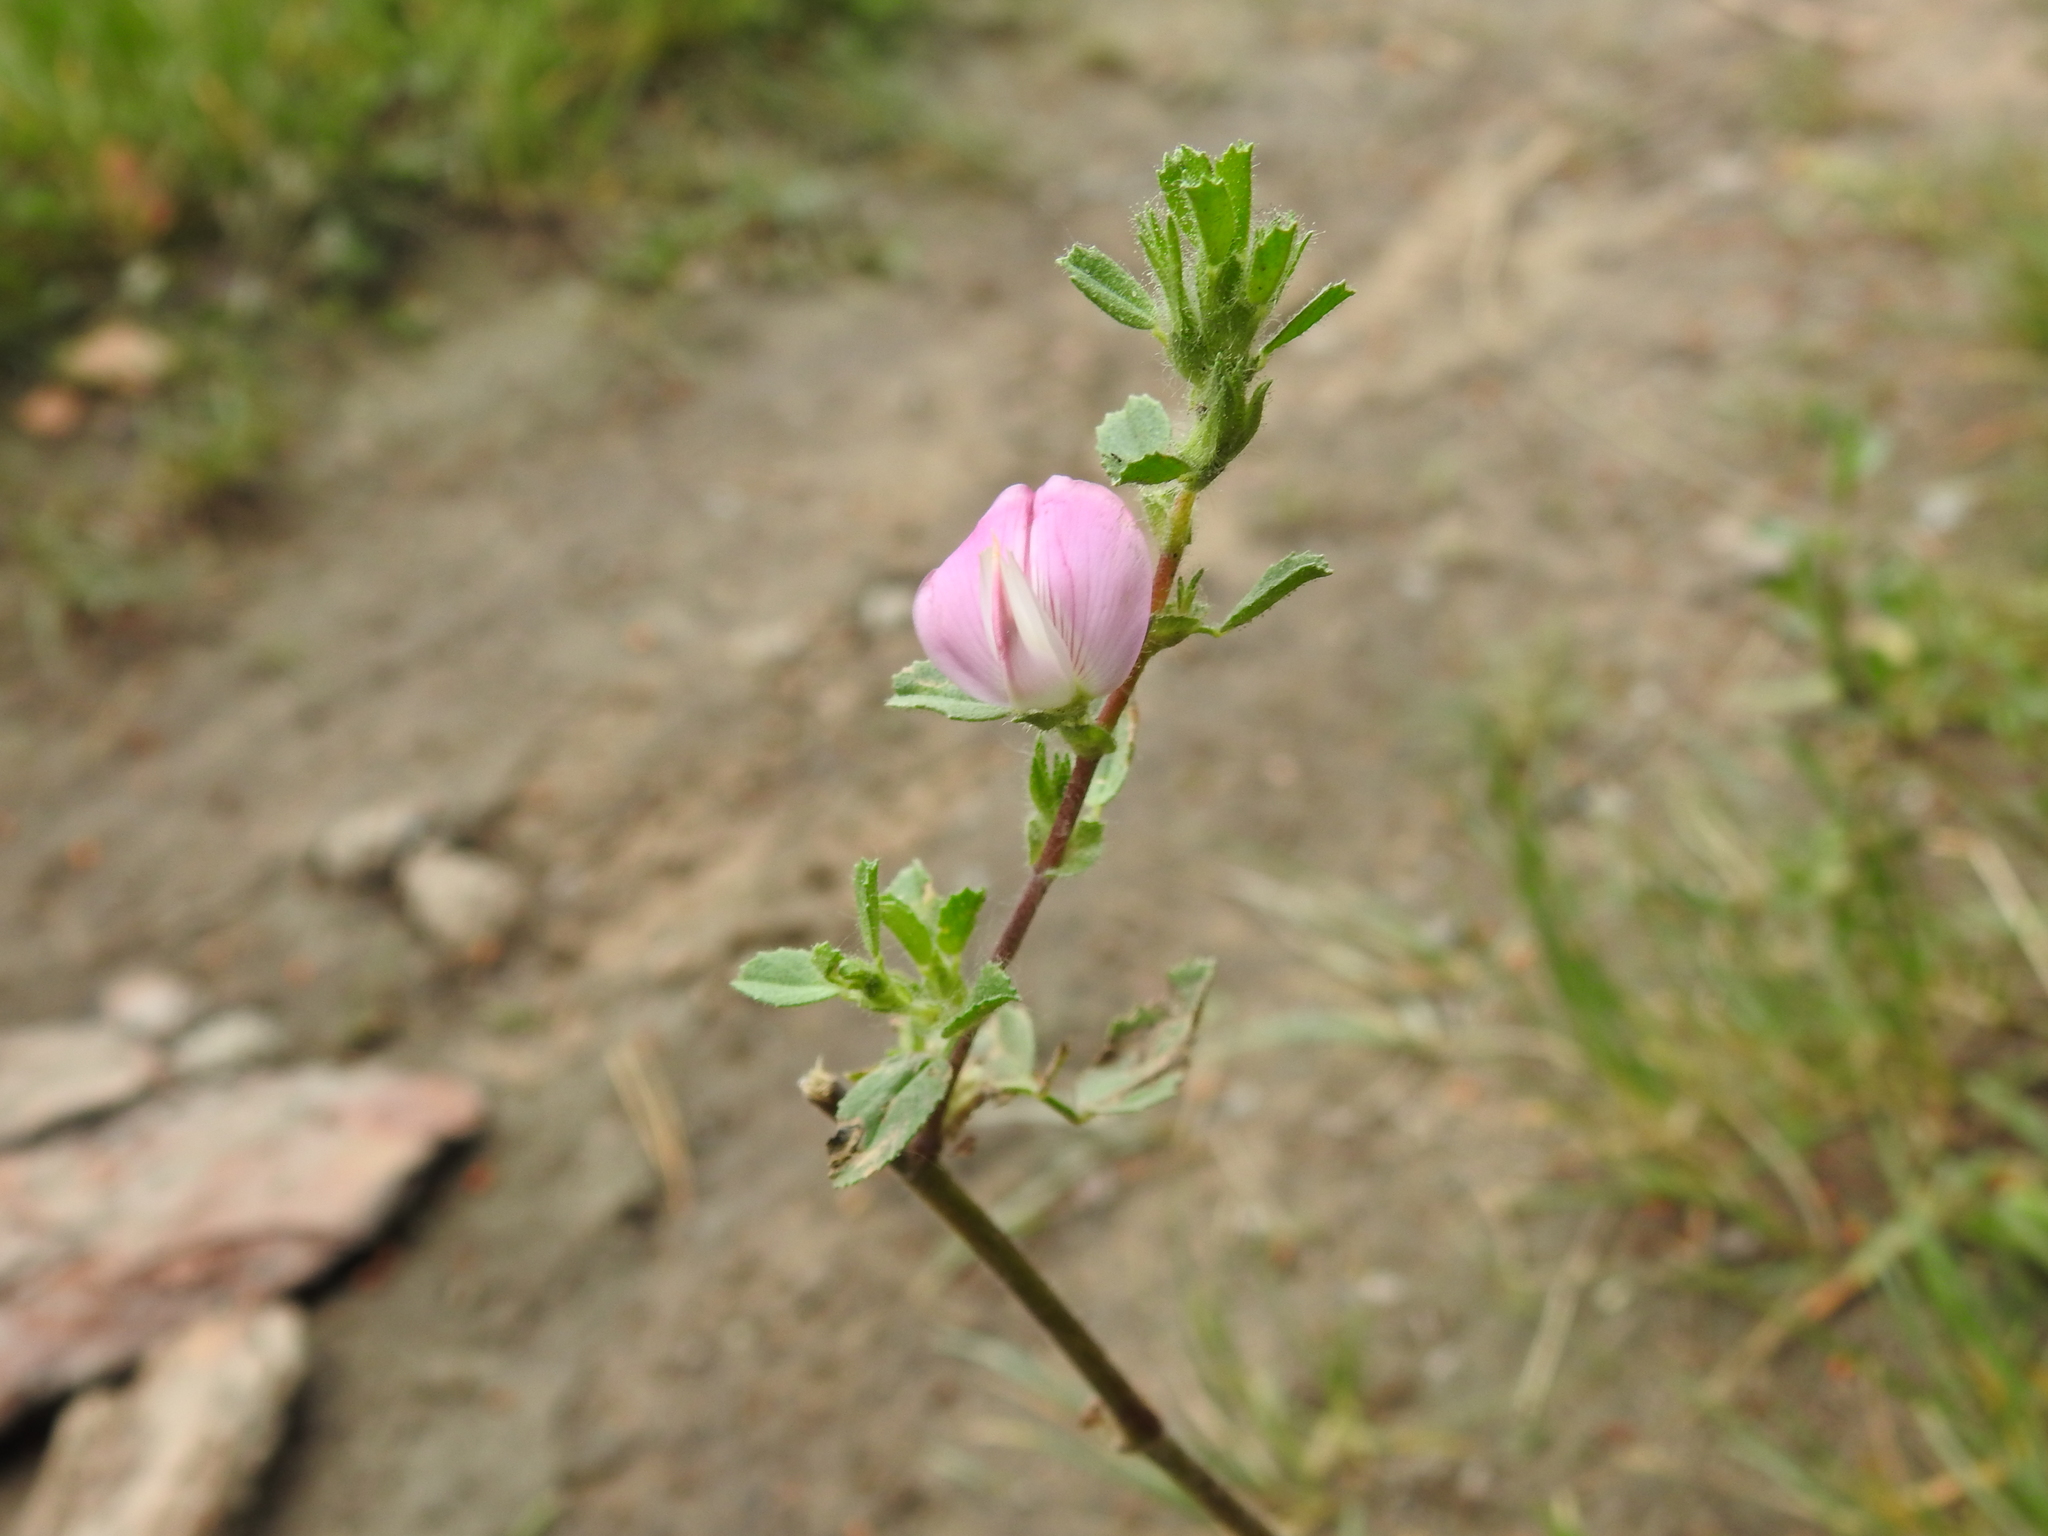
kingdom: Plantae
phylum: Tracheophyta
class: Magnoliopsida
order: Fabales
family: Fabaceae
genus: Ononis
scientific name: Ononis spinosa
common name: Spiny restharrow
